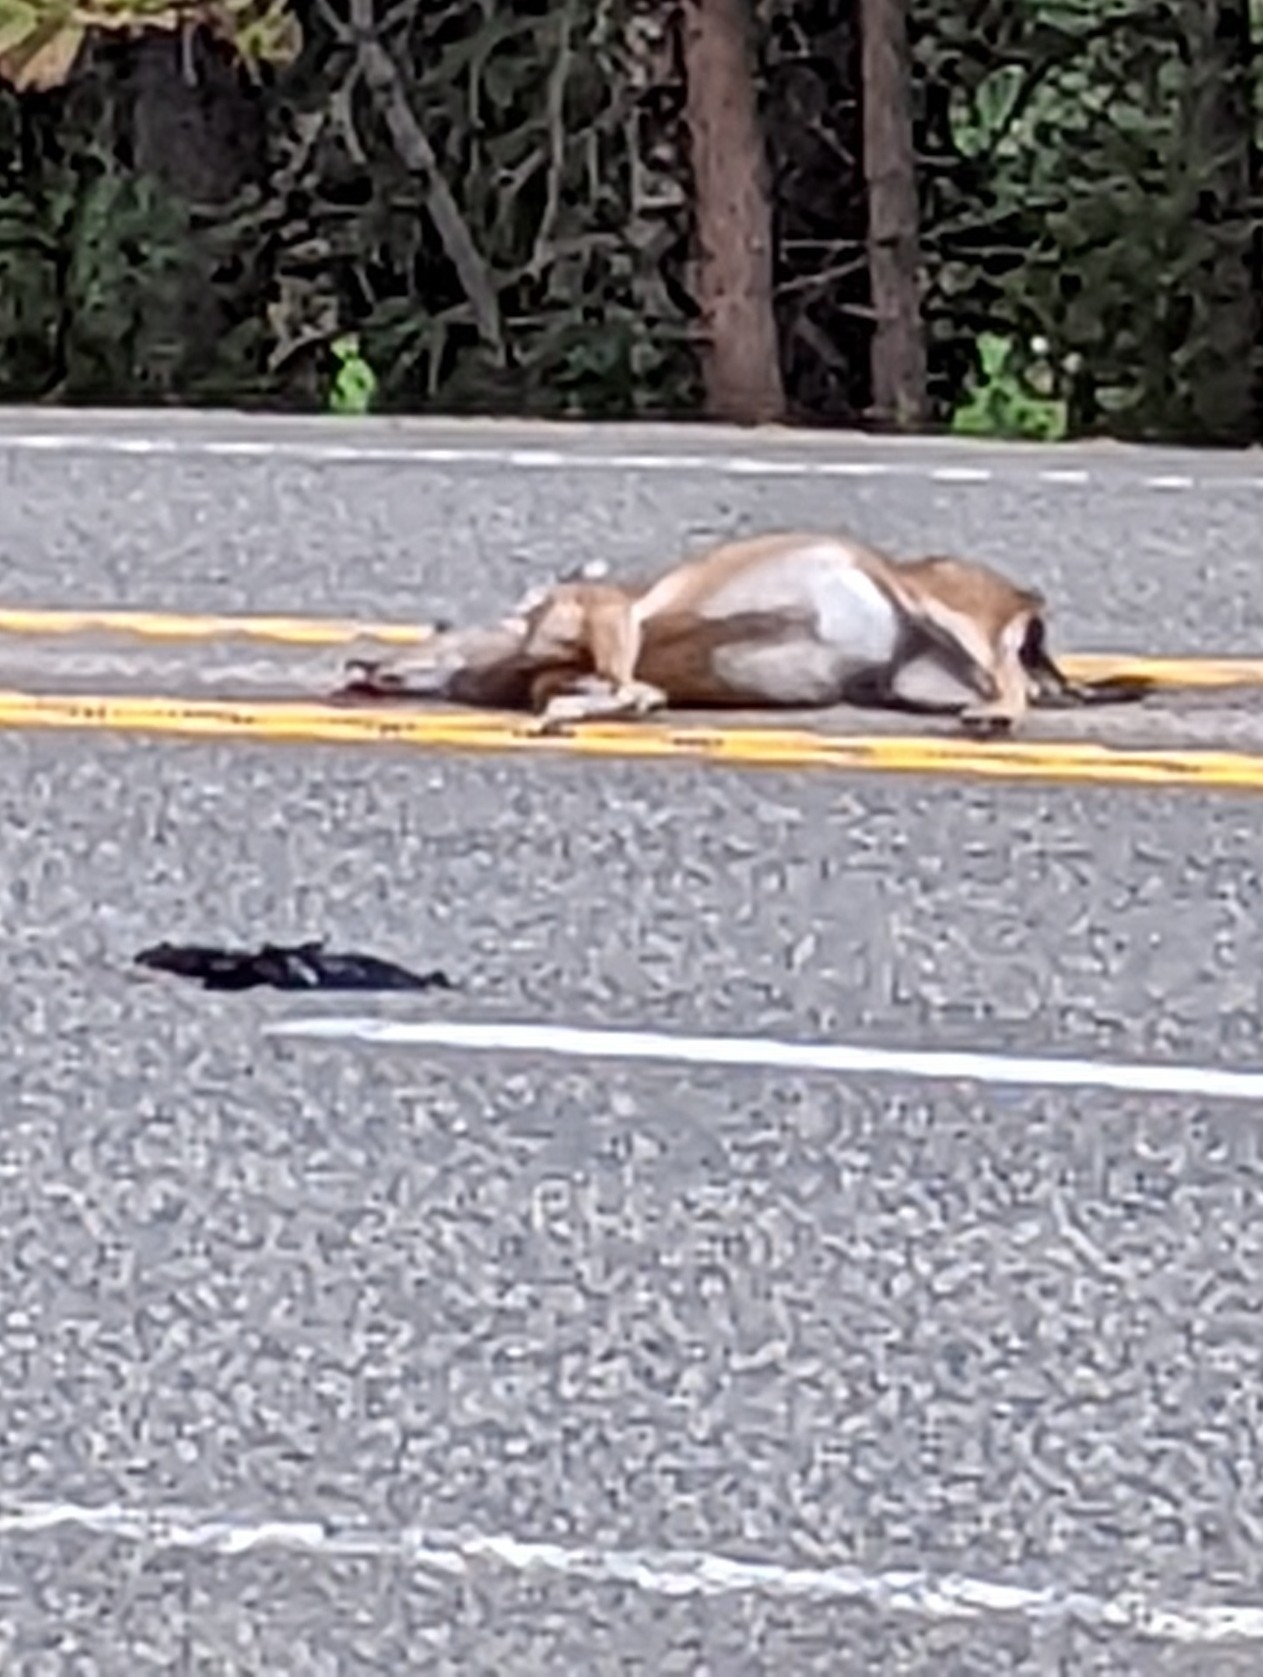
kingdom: Animalia
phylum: Chordata
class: Mammalia
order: Artiodactyla
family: Cervidae
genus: Odocoileus
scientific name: Odocoileus hemionus
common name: Mule deer
